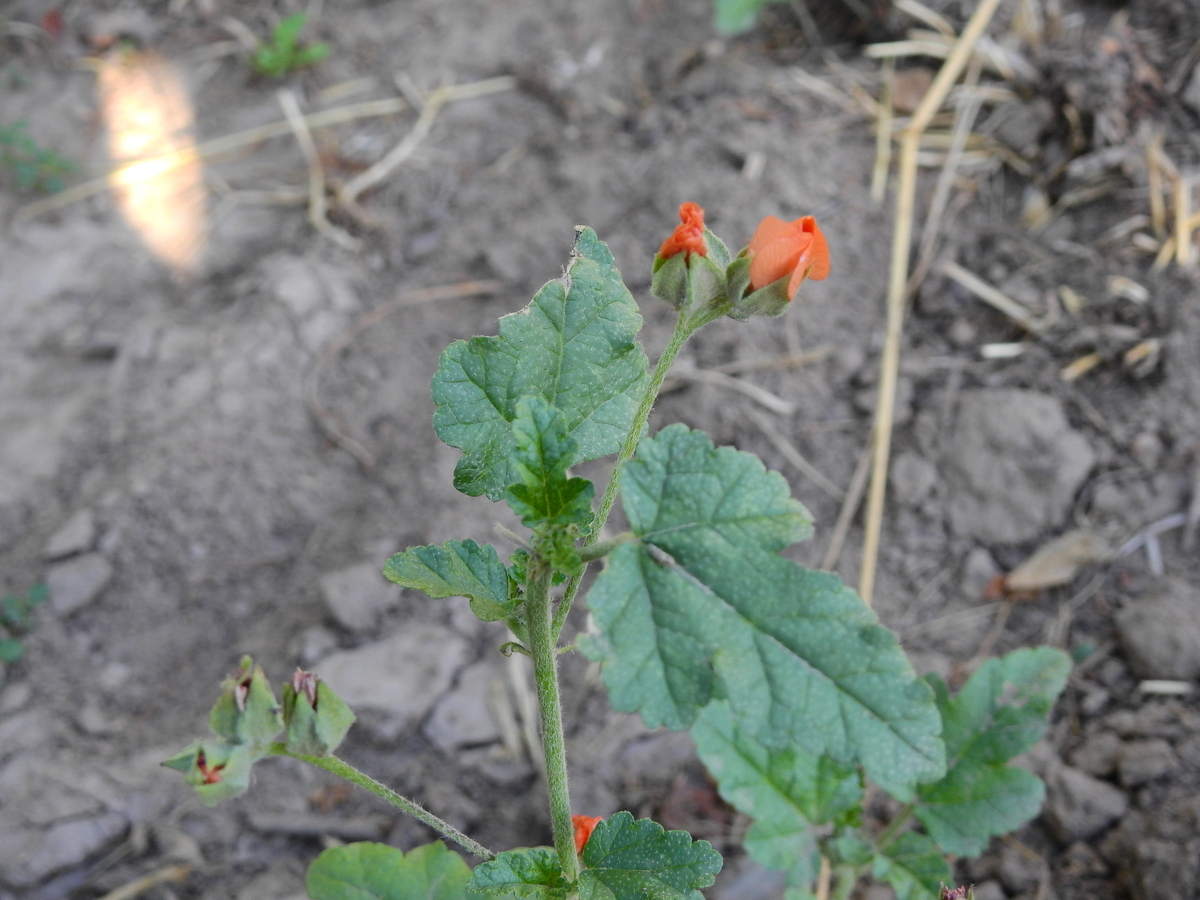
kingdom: Plantae
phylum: Tracheophyta
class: Magnoliopsida
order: Malvales
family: Malvaceae
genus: Sphaeralcea
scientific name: Sphaeralcea miniata
